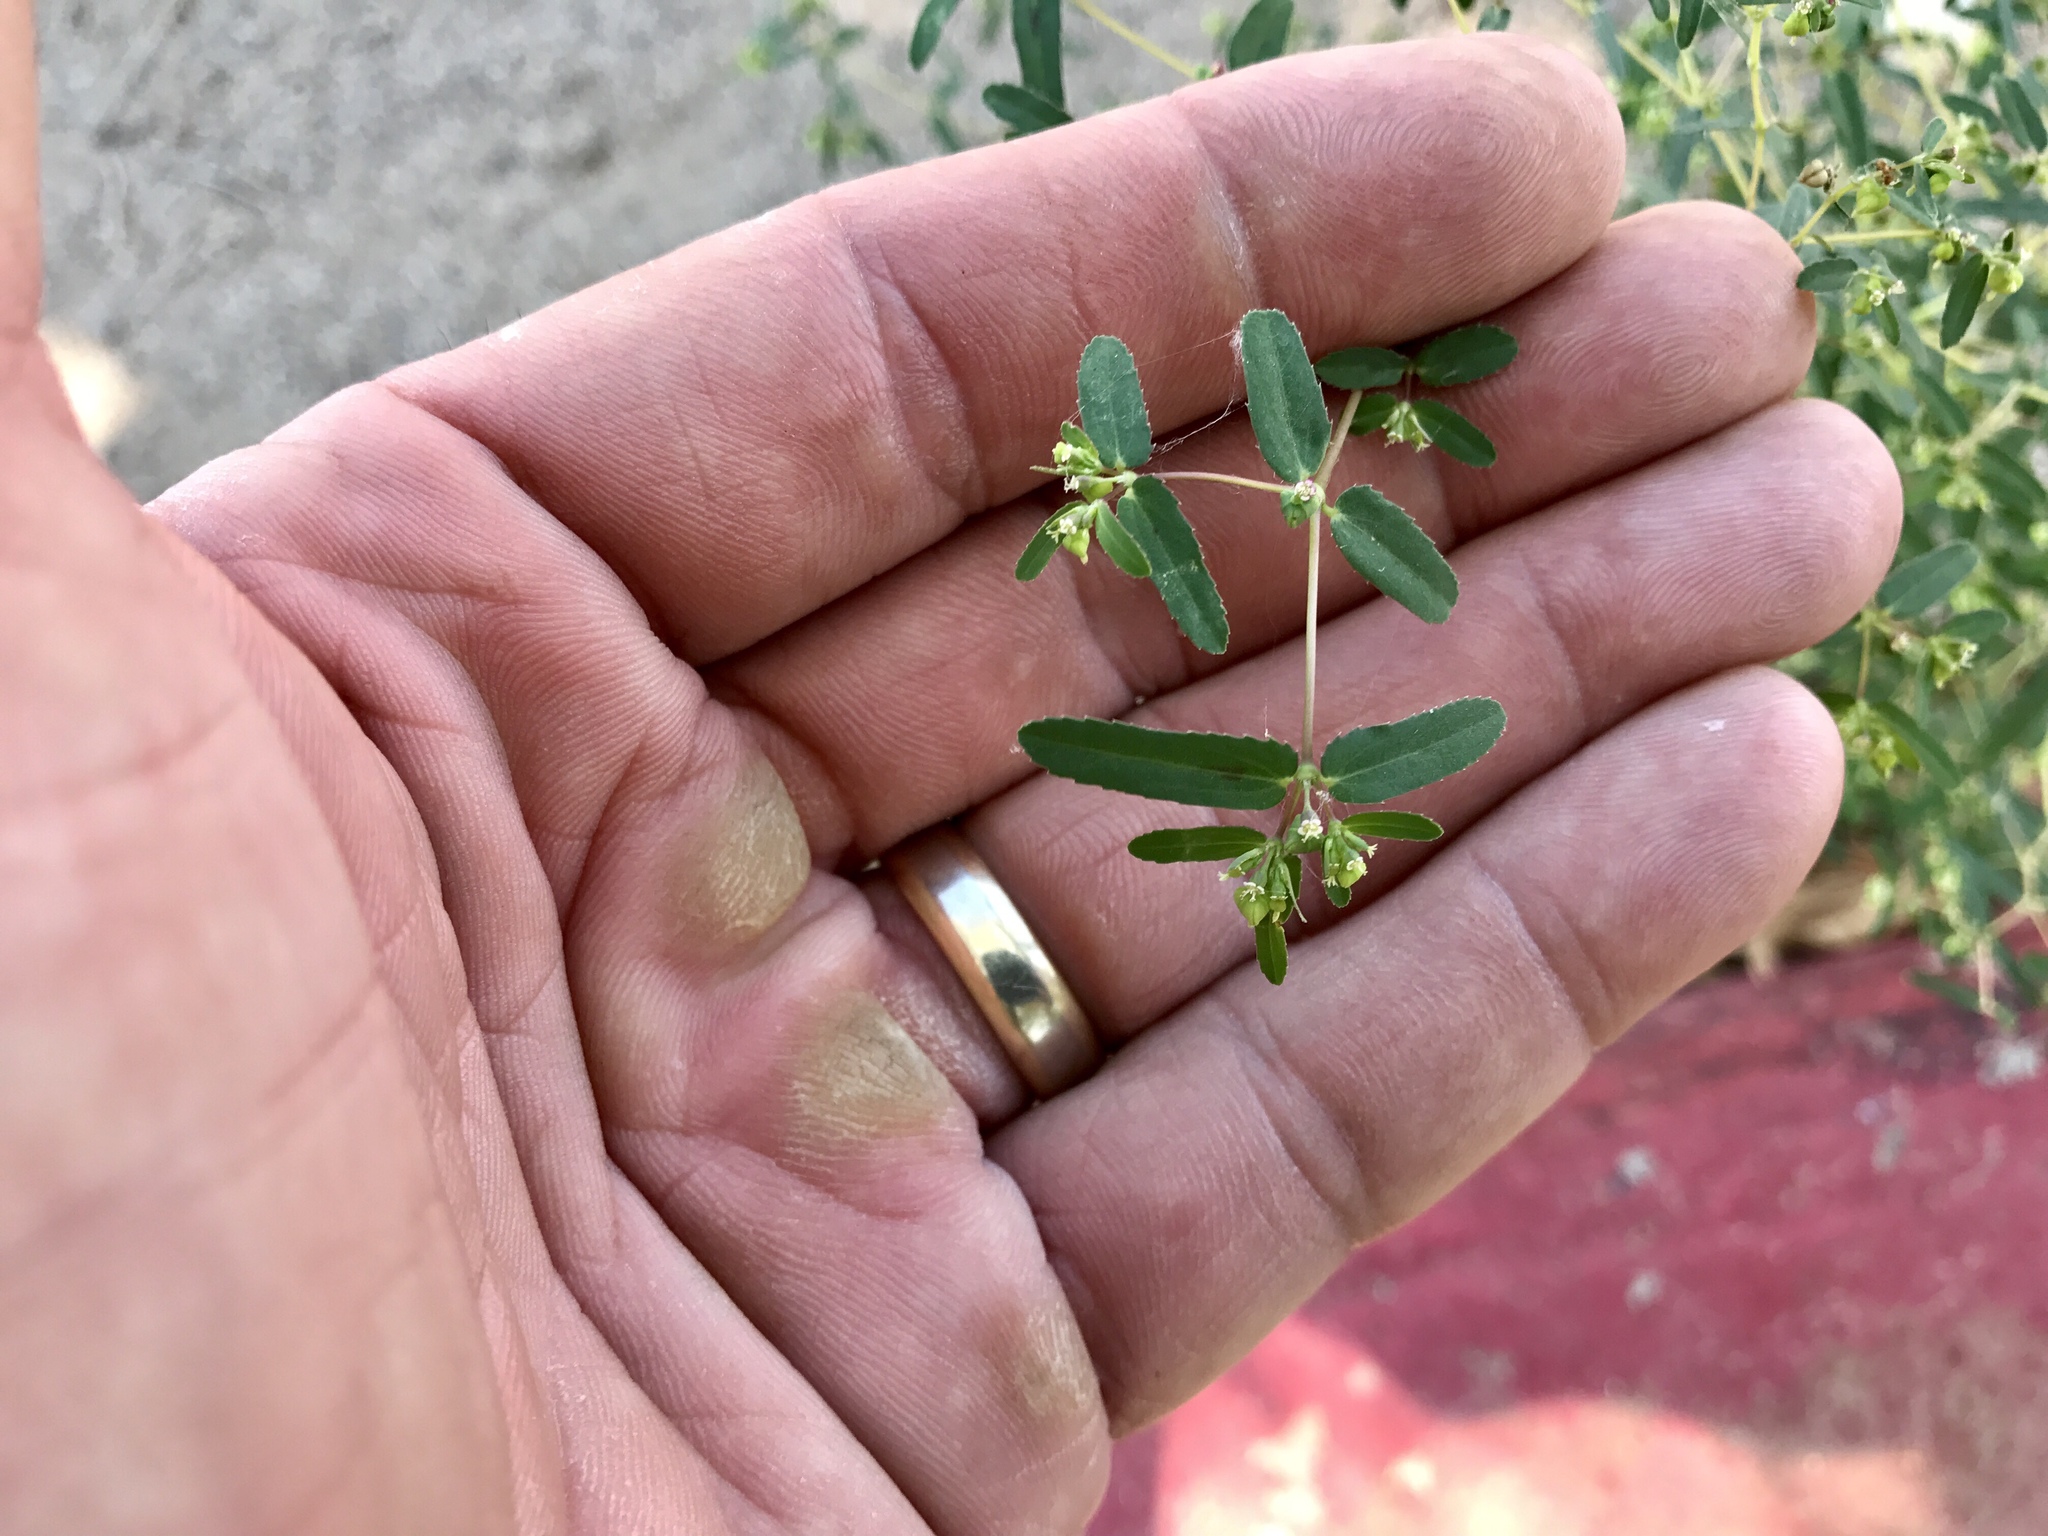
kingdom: Plantae
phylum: Tracheophyta
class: Magnoliopsida
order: Malpighiales
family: Euphorbiaceae
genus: Euphorbia
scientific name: Euphorbia hyssopifolia
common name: Hyssopleaf sandmat
